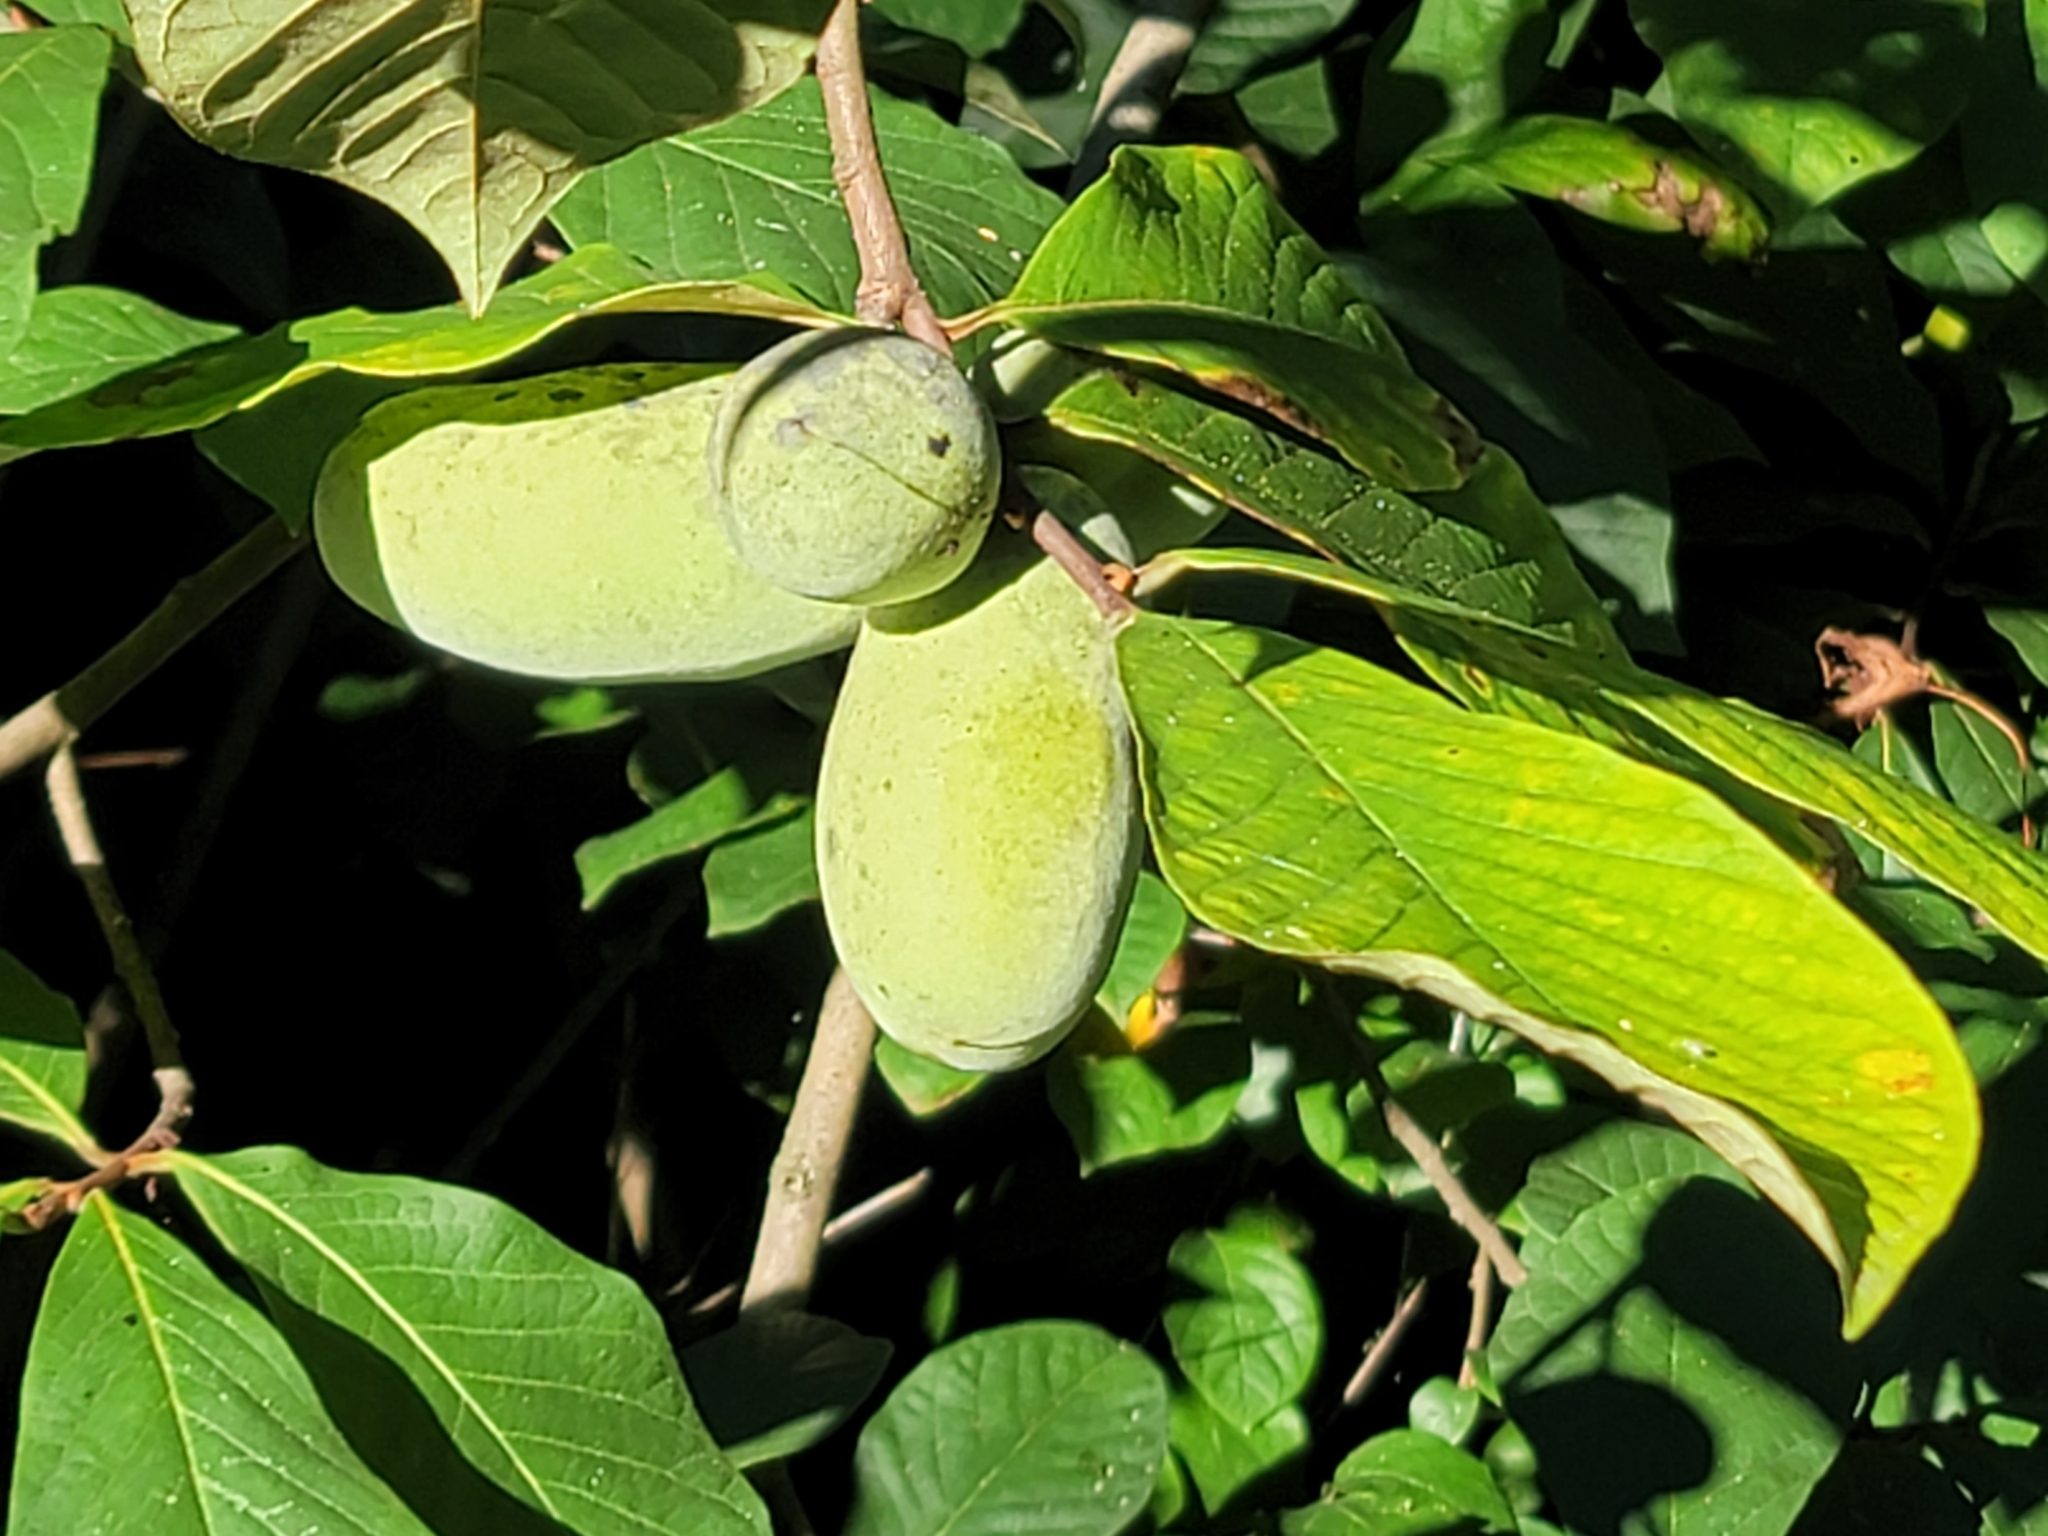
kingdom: Plantae
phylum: Tracheophyta
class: Magnoliopsida
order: Magnoliales
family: Annonaceae
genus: Asimina
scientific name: Asimina triloba
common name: Dog-banana
